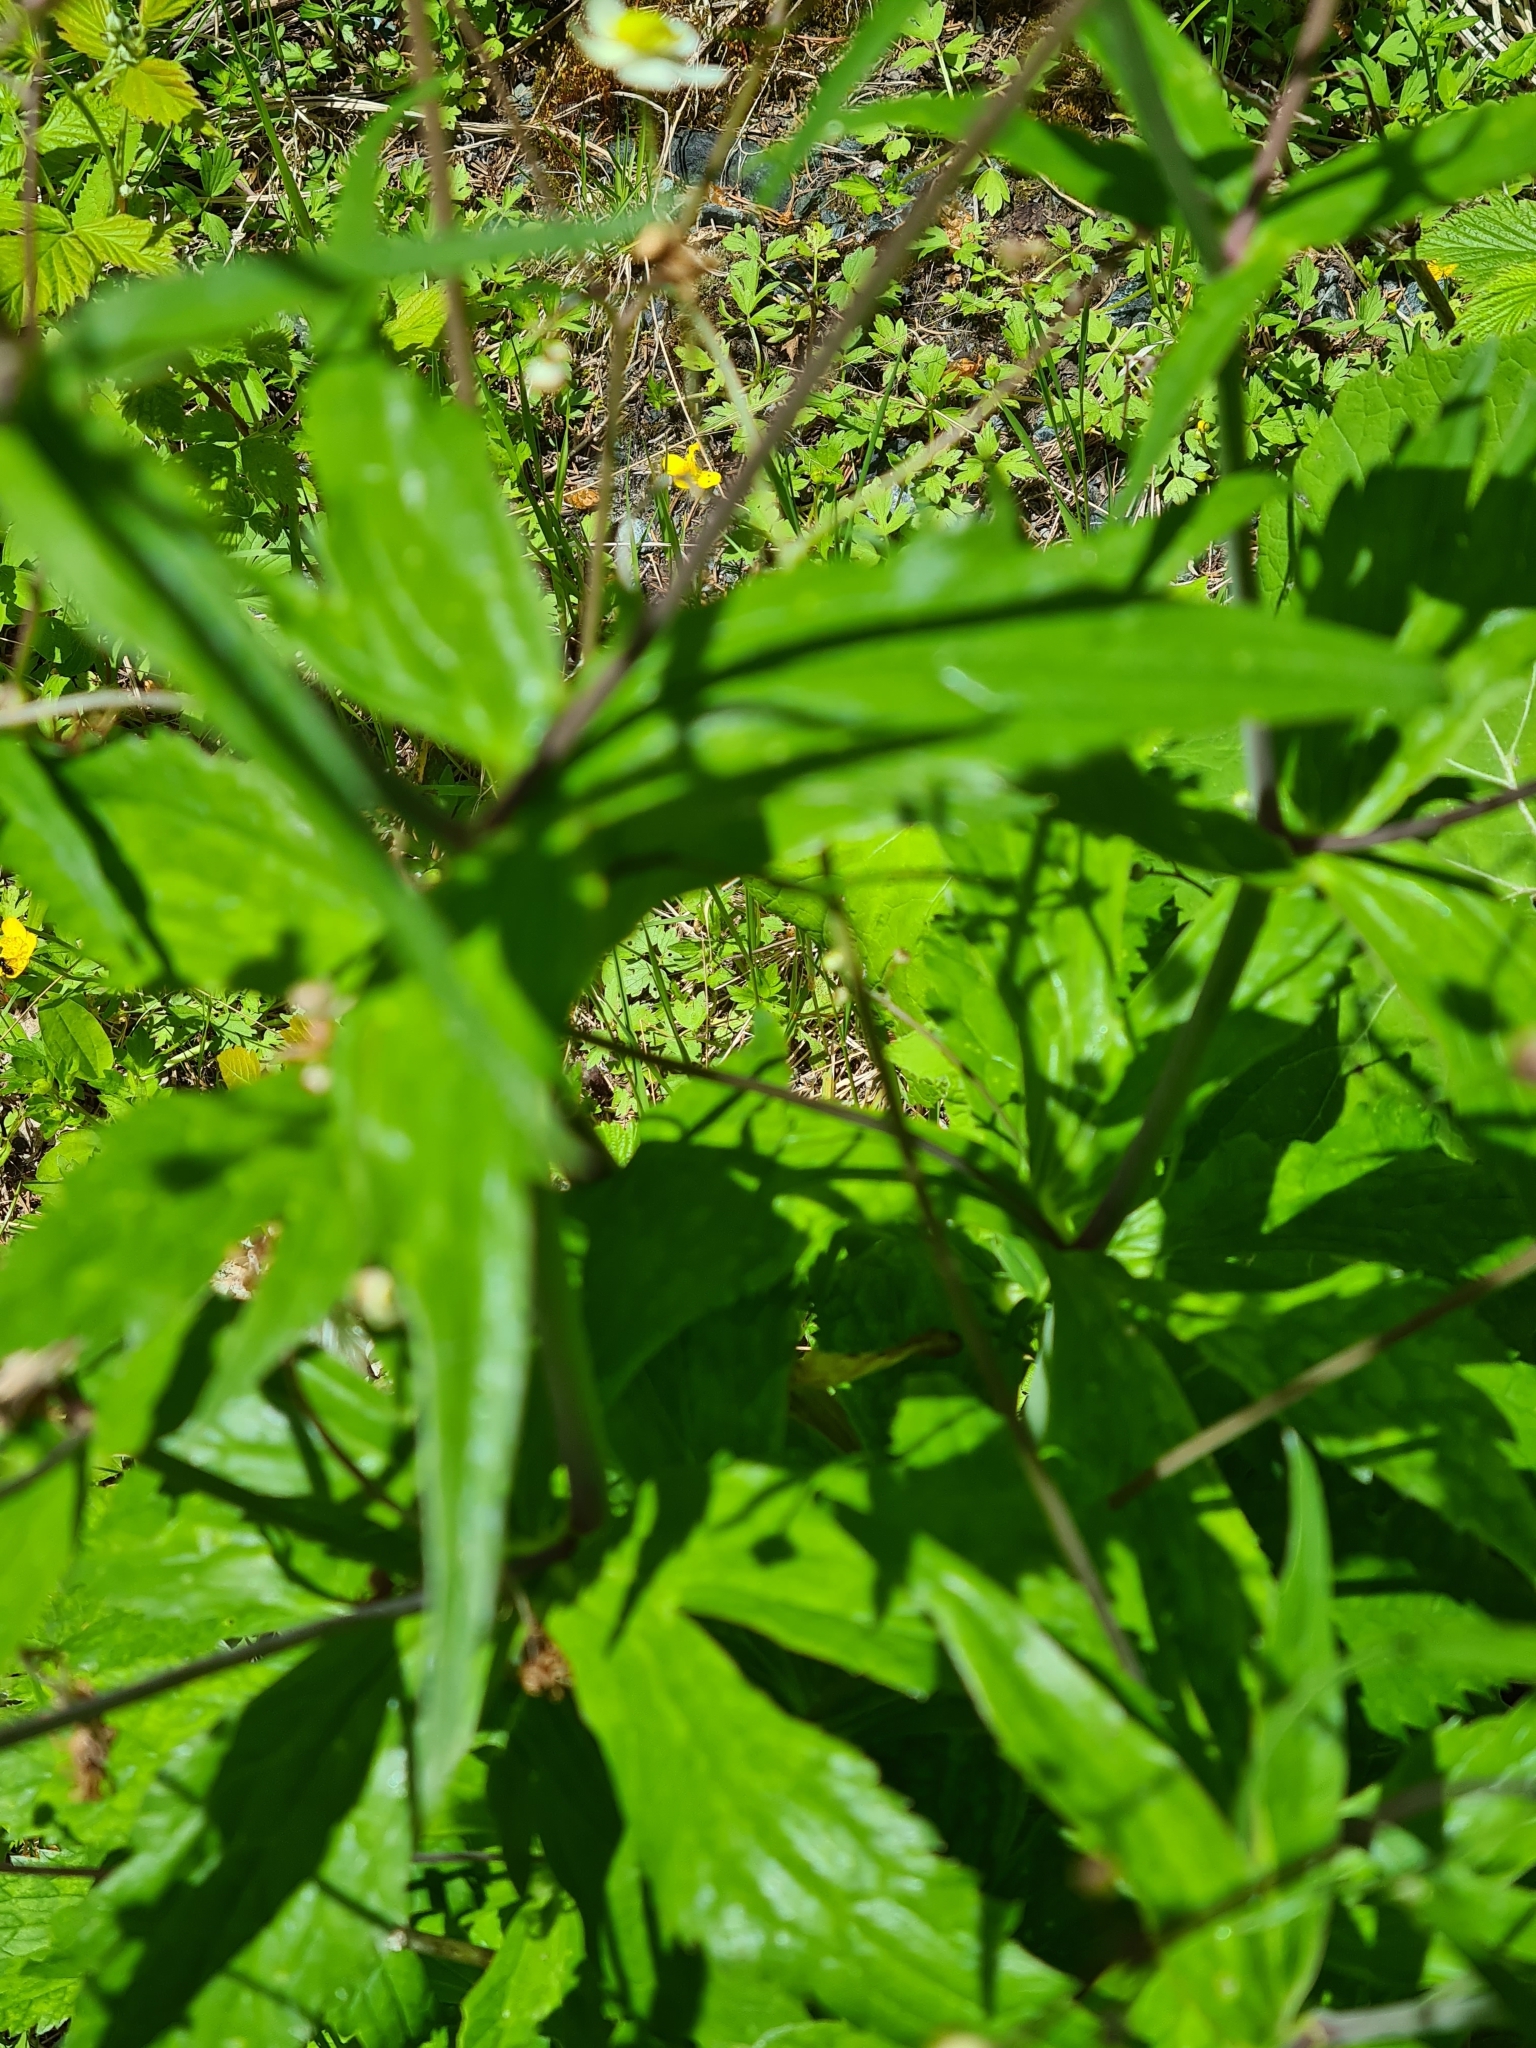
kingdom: Plantae
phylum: Tracheophyta
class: Magnoliopsida
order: Ranunculales
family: Ranunculaceae
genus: Ranunculus
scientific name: Ranunculus platanifolius
